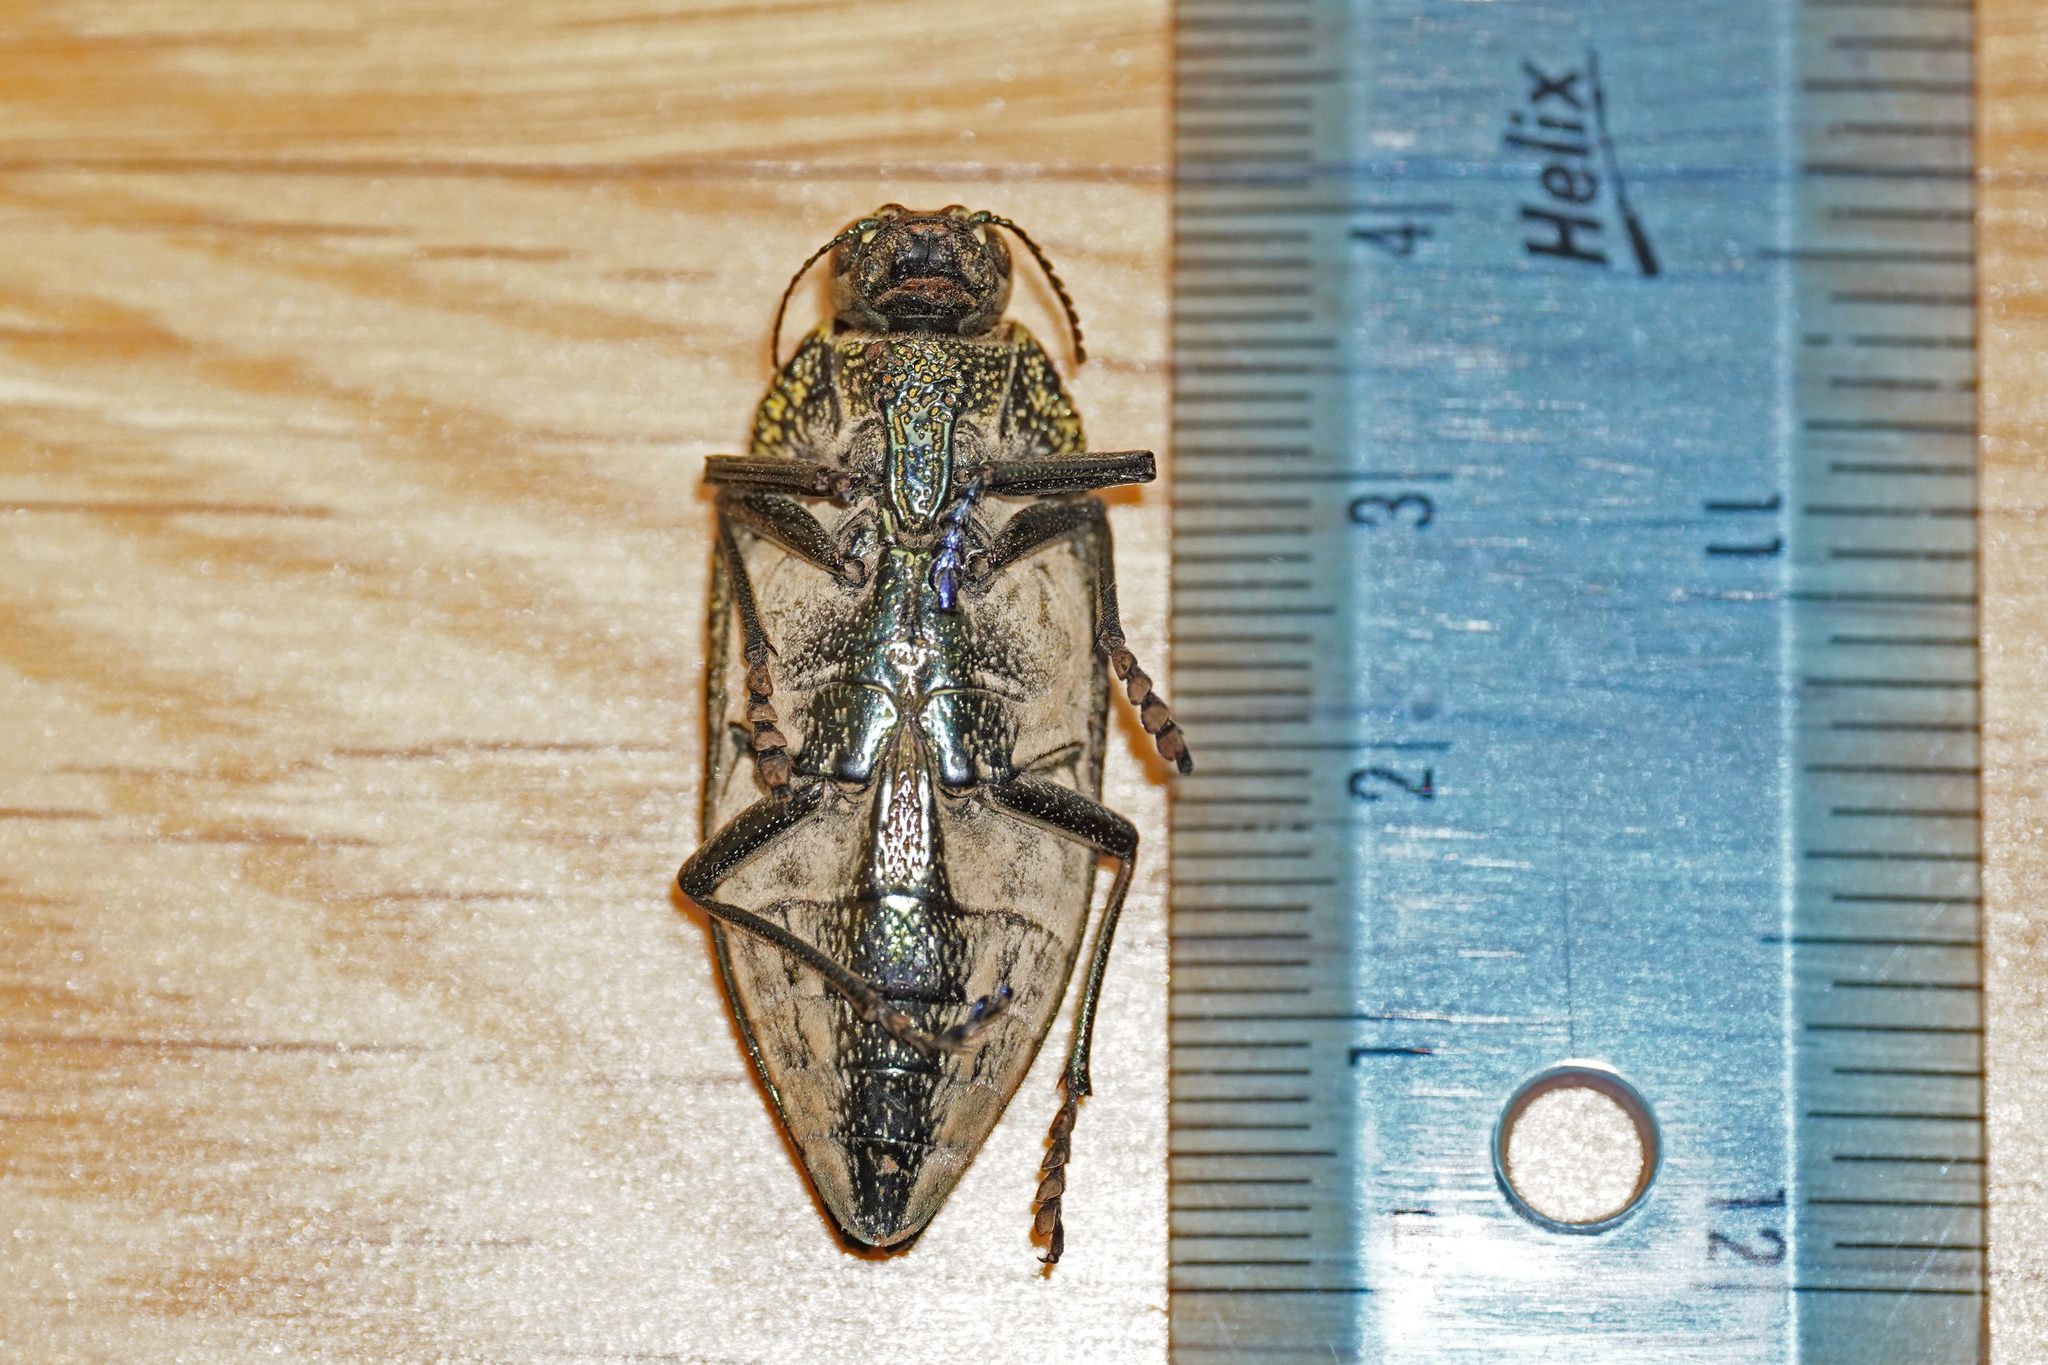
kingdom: Animalia
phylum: Arthropoda
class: Insecta
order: Coleoptera
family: Buprestidae
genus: Lampetis
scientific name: Lampetis nigroviolacea
